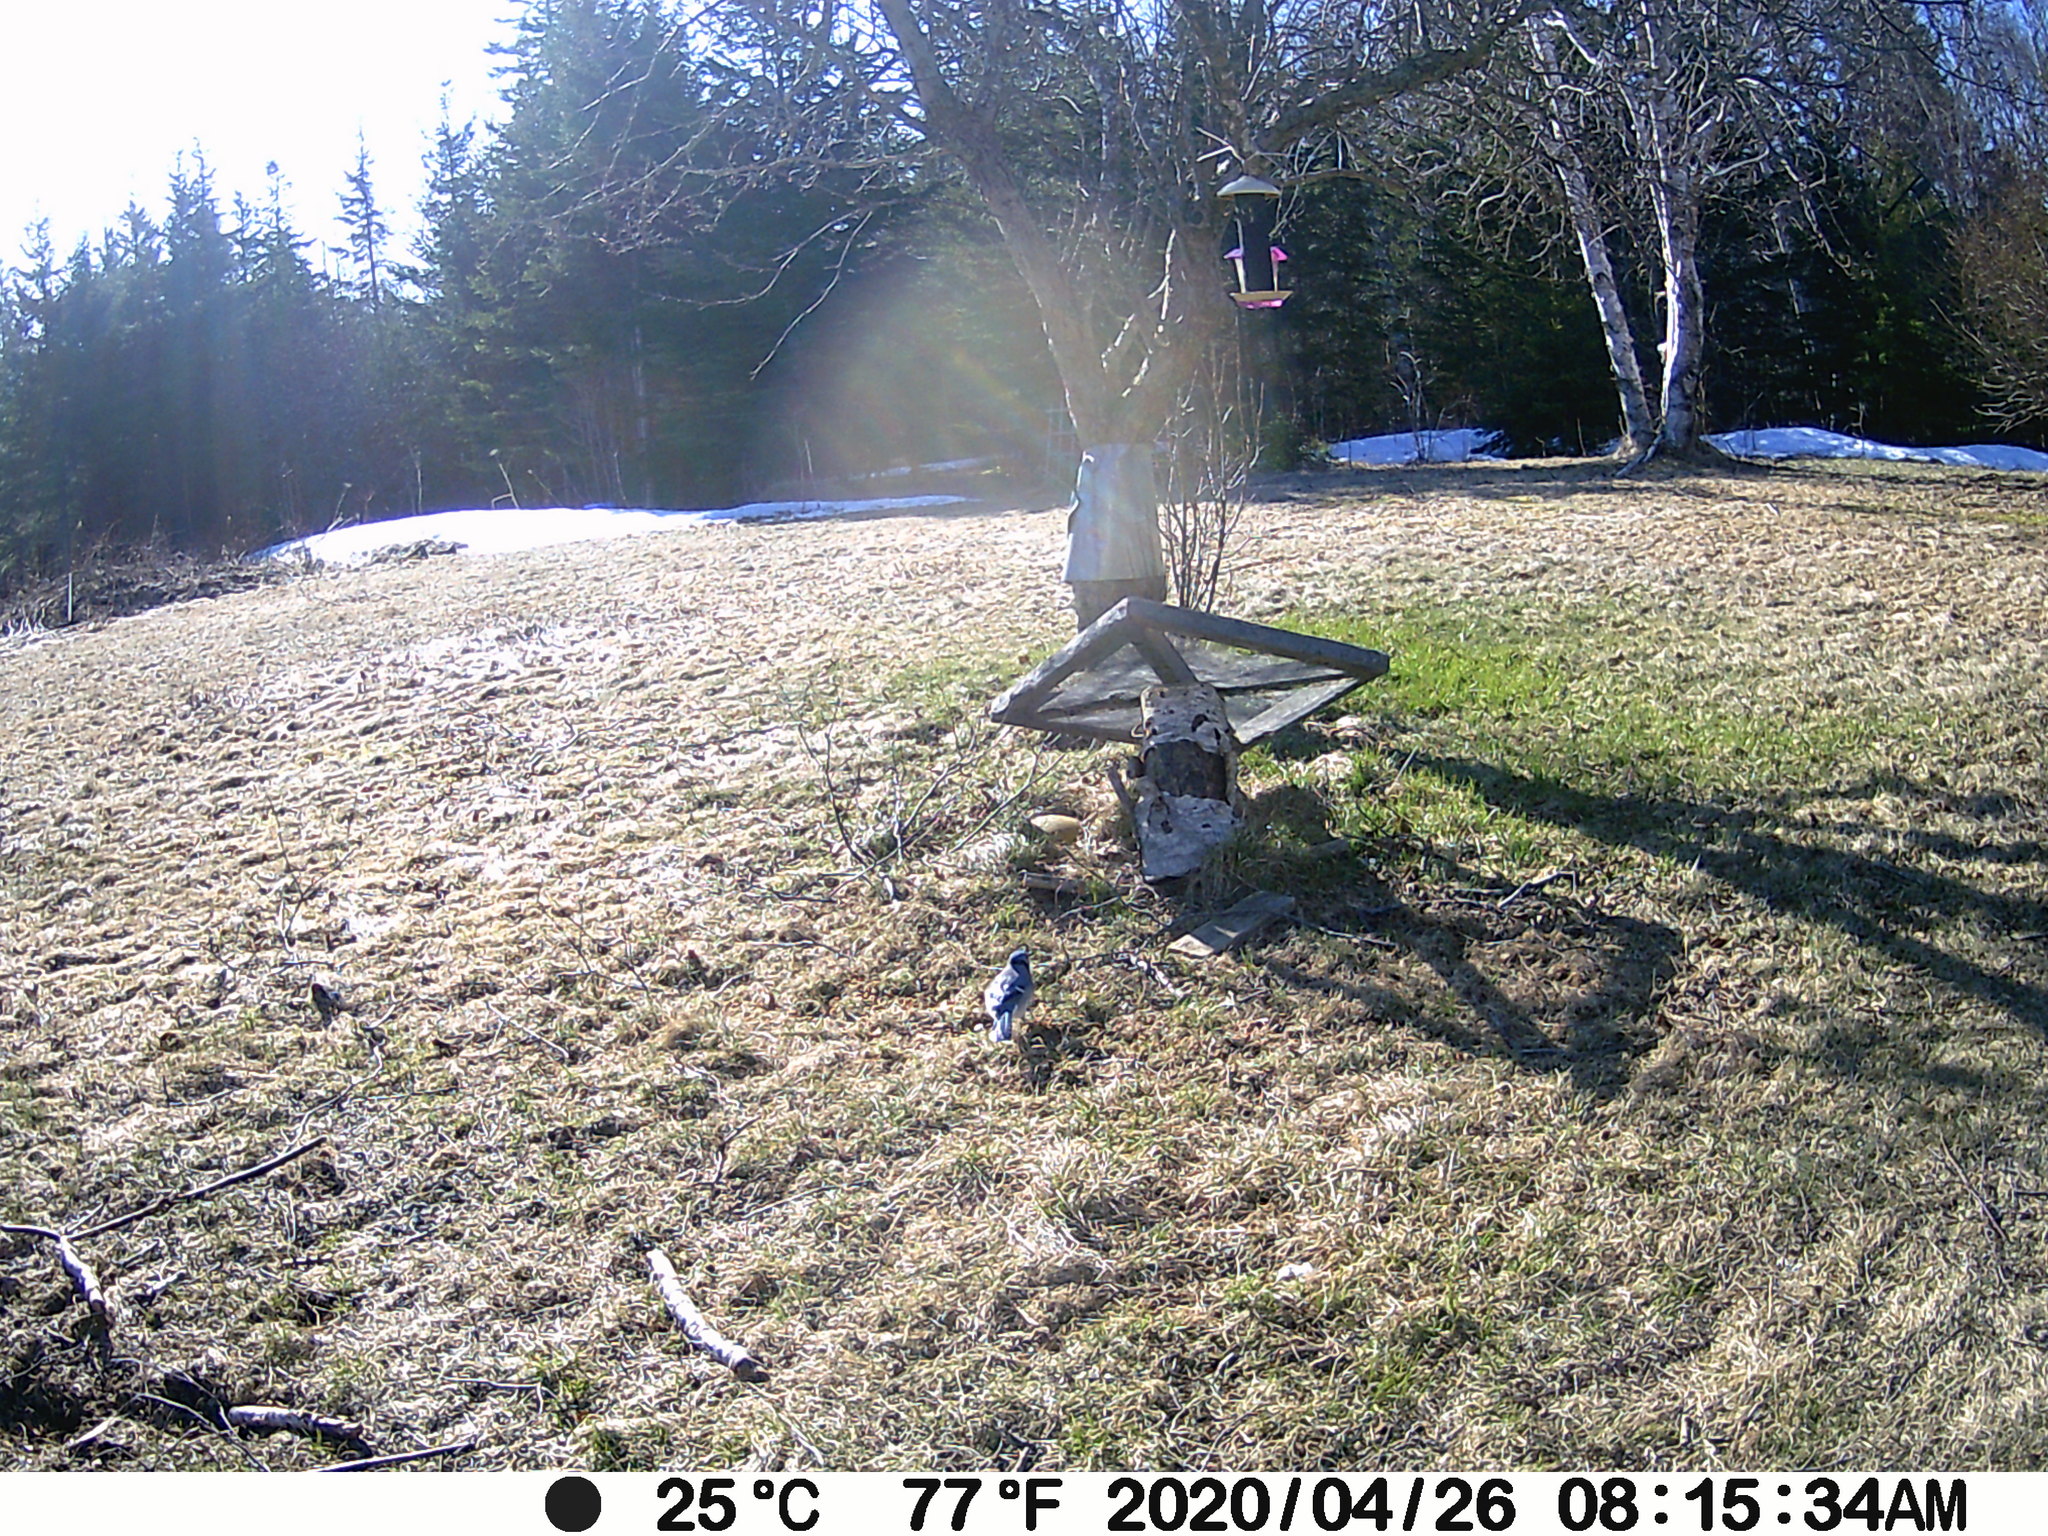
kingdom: Animalia
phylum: Chordata
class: Aves
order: Passeriformes
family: Corvidae
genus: Cyanocitta
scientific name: Cyanocitta cristata
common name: Blue jay
